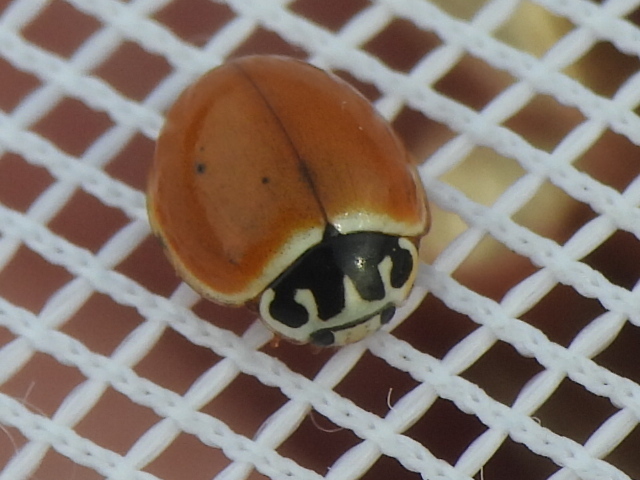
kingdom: Animalia
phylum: Arthropoda
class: Insecta
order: Coleoptera
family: Coccinellidae
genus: Cycloneda
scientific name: Cycloneda munda
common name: Polished lady beetle
